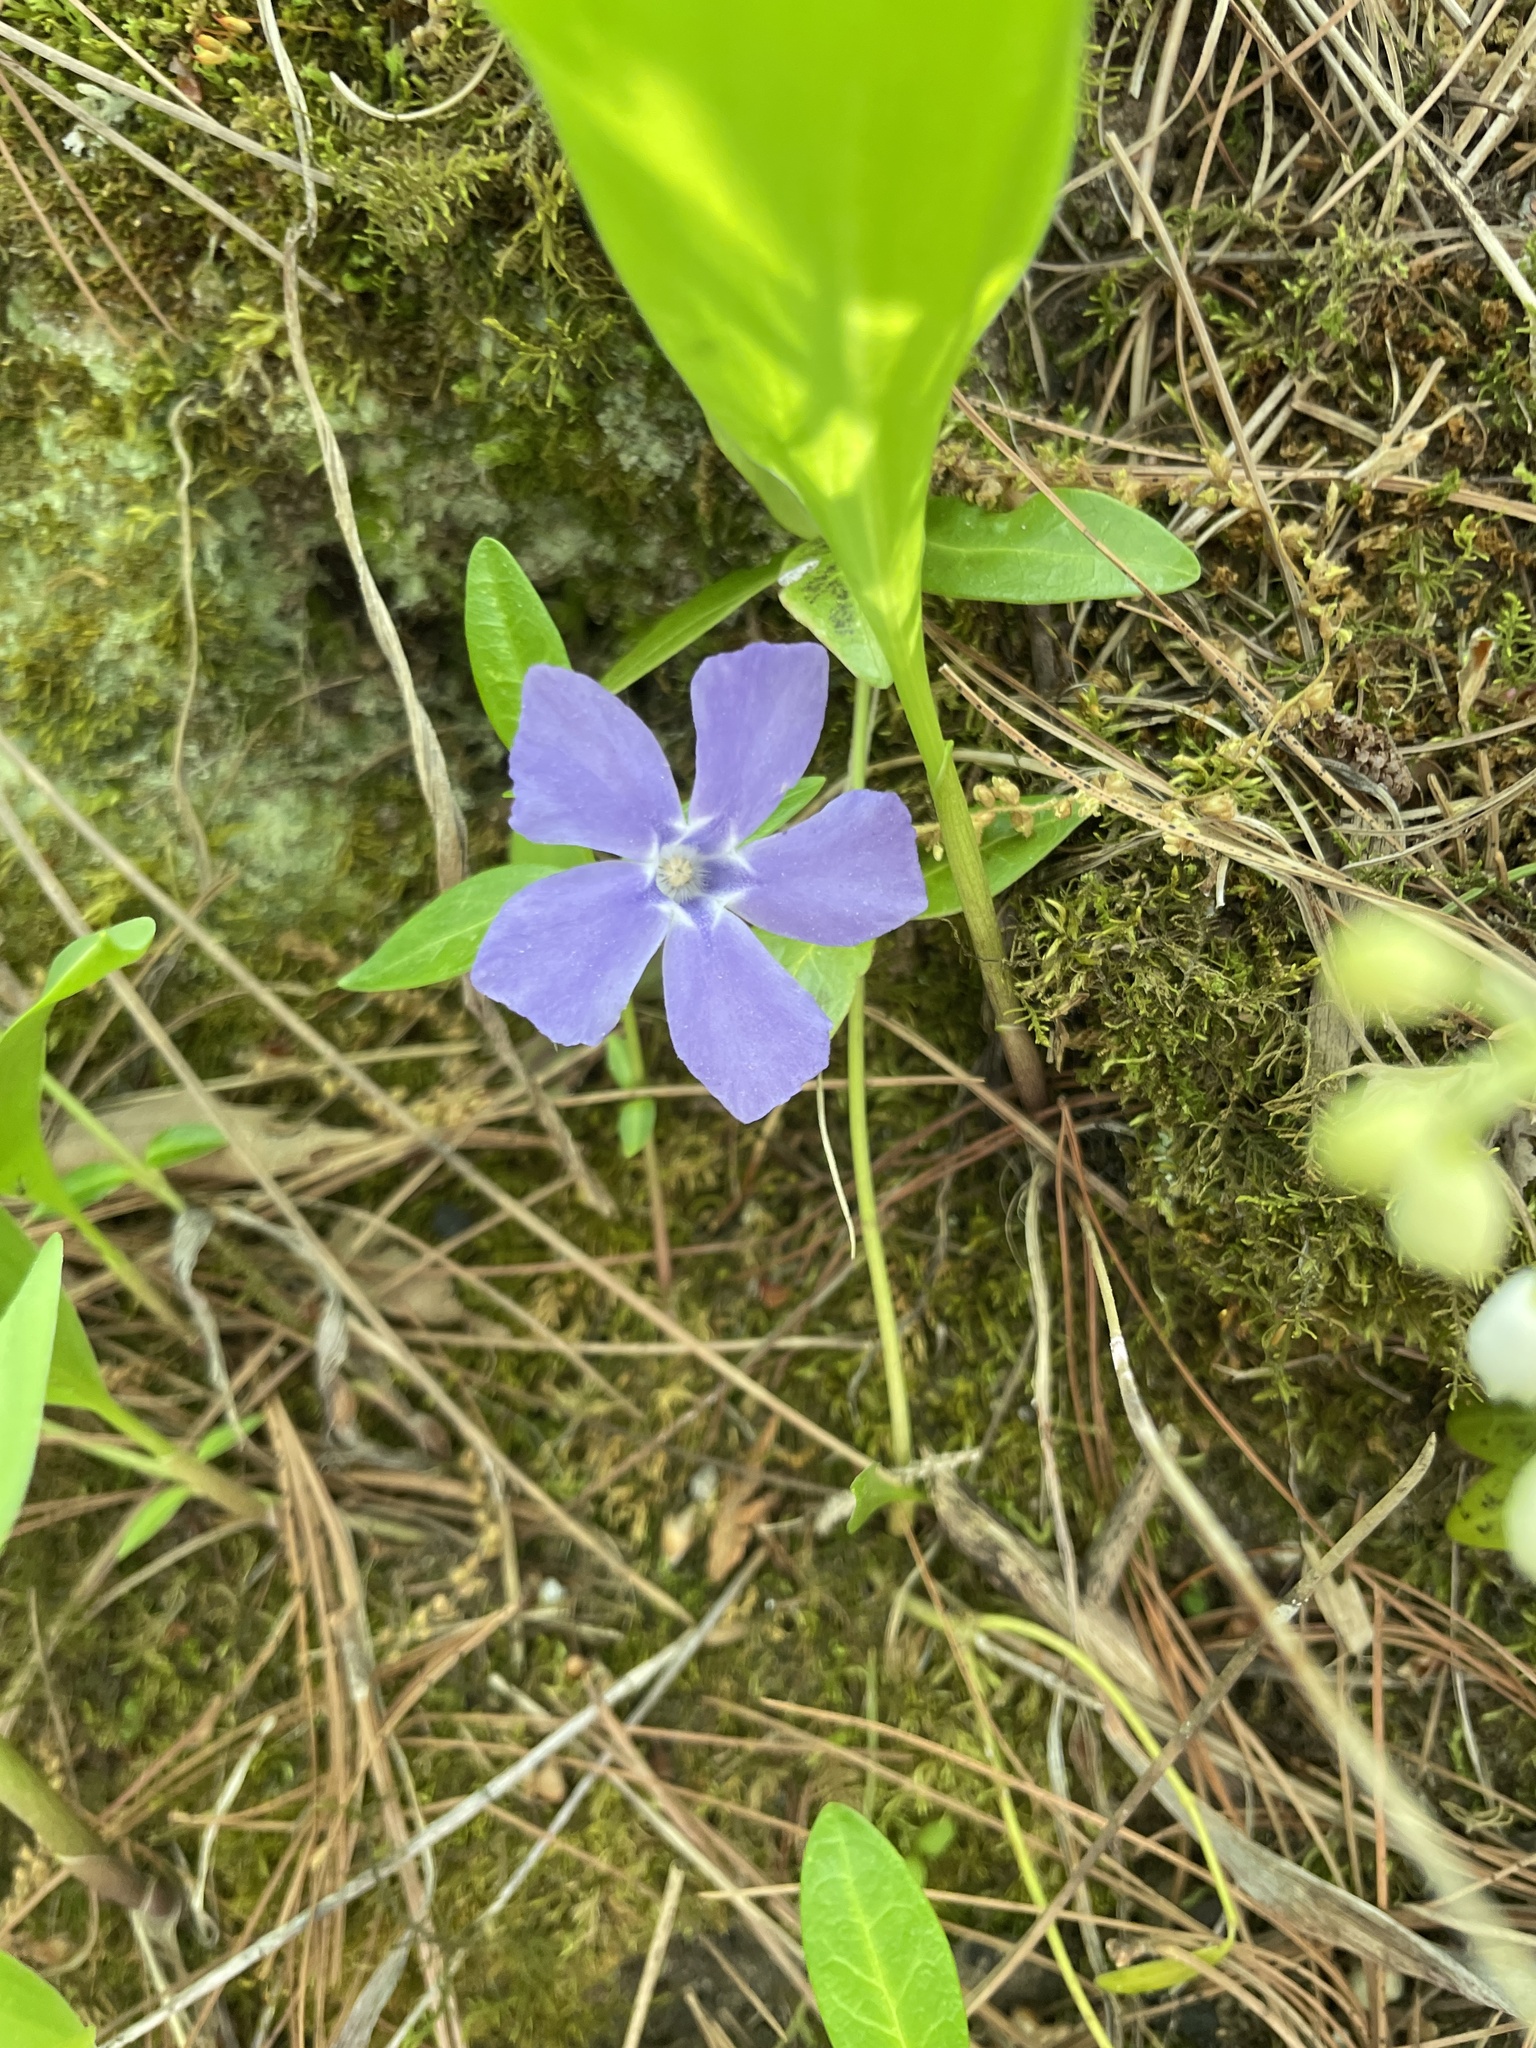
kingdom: Plantae
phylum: Tracheophyta
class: Magnoliopsida
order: Gentianales
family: Apocynaceae
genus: Vinca
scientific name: Vinca minor
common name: Lesser periwinkle
